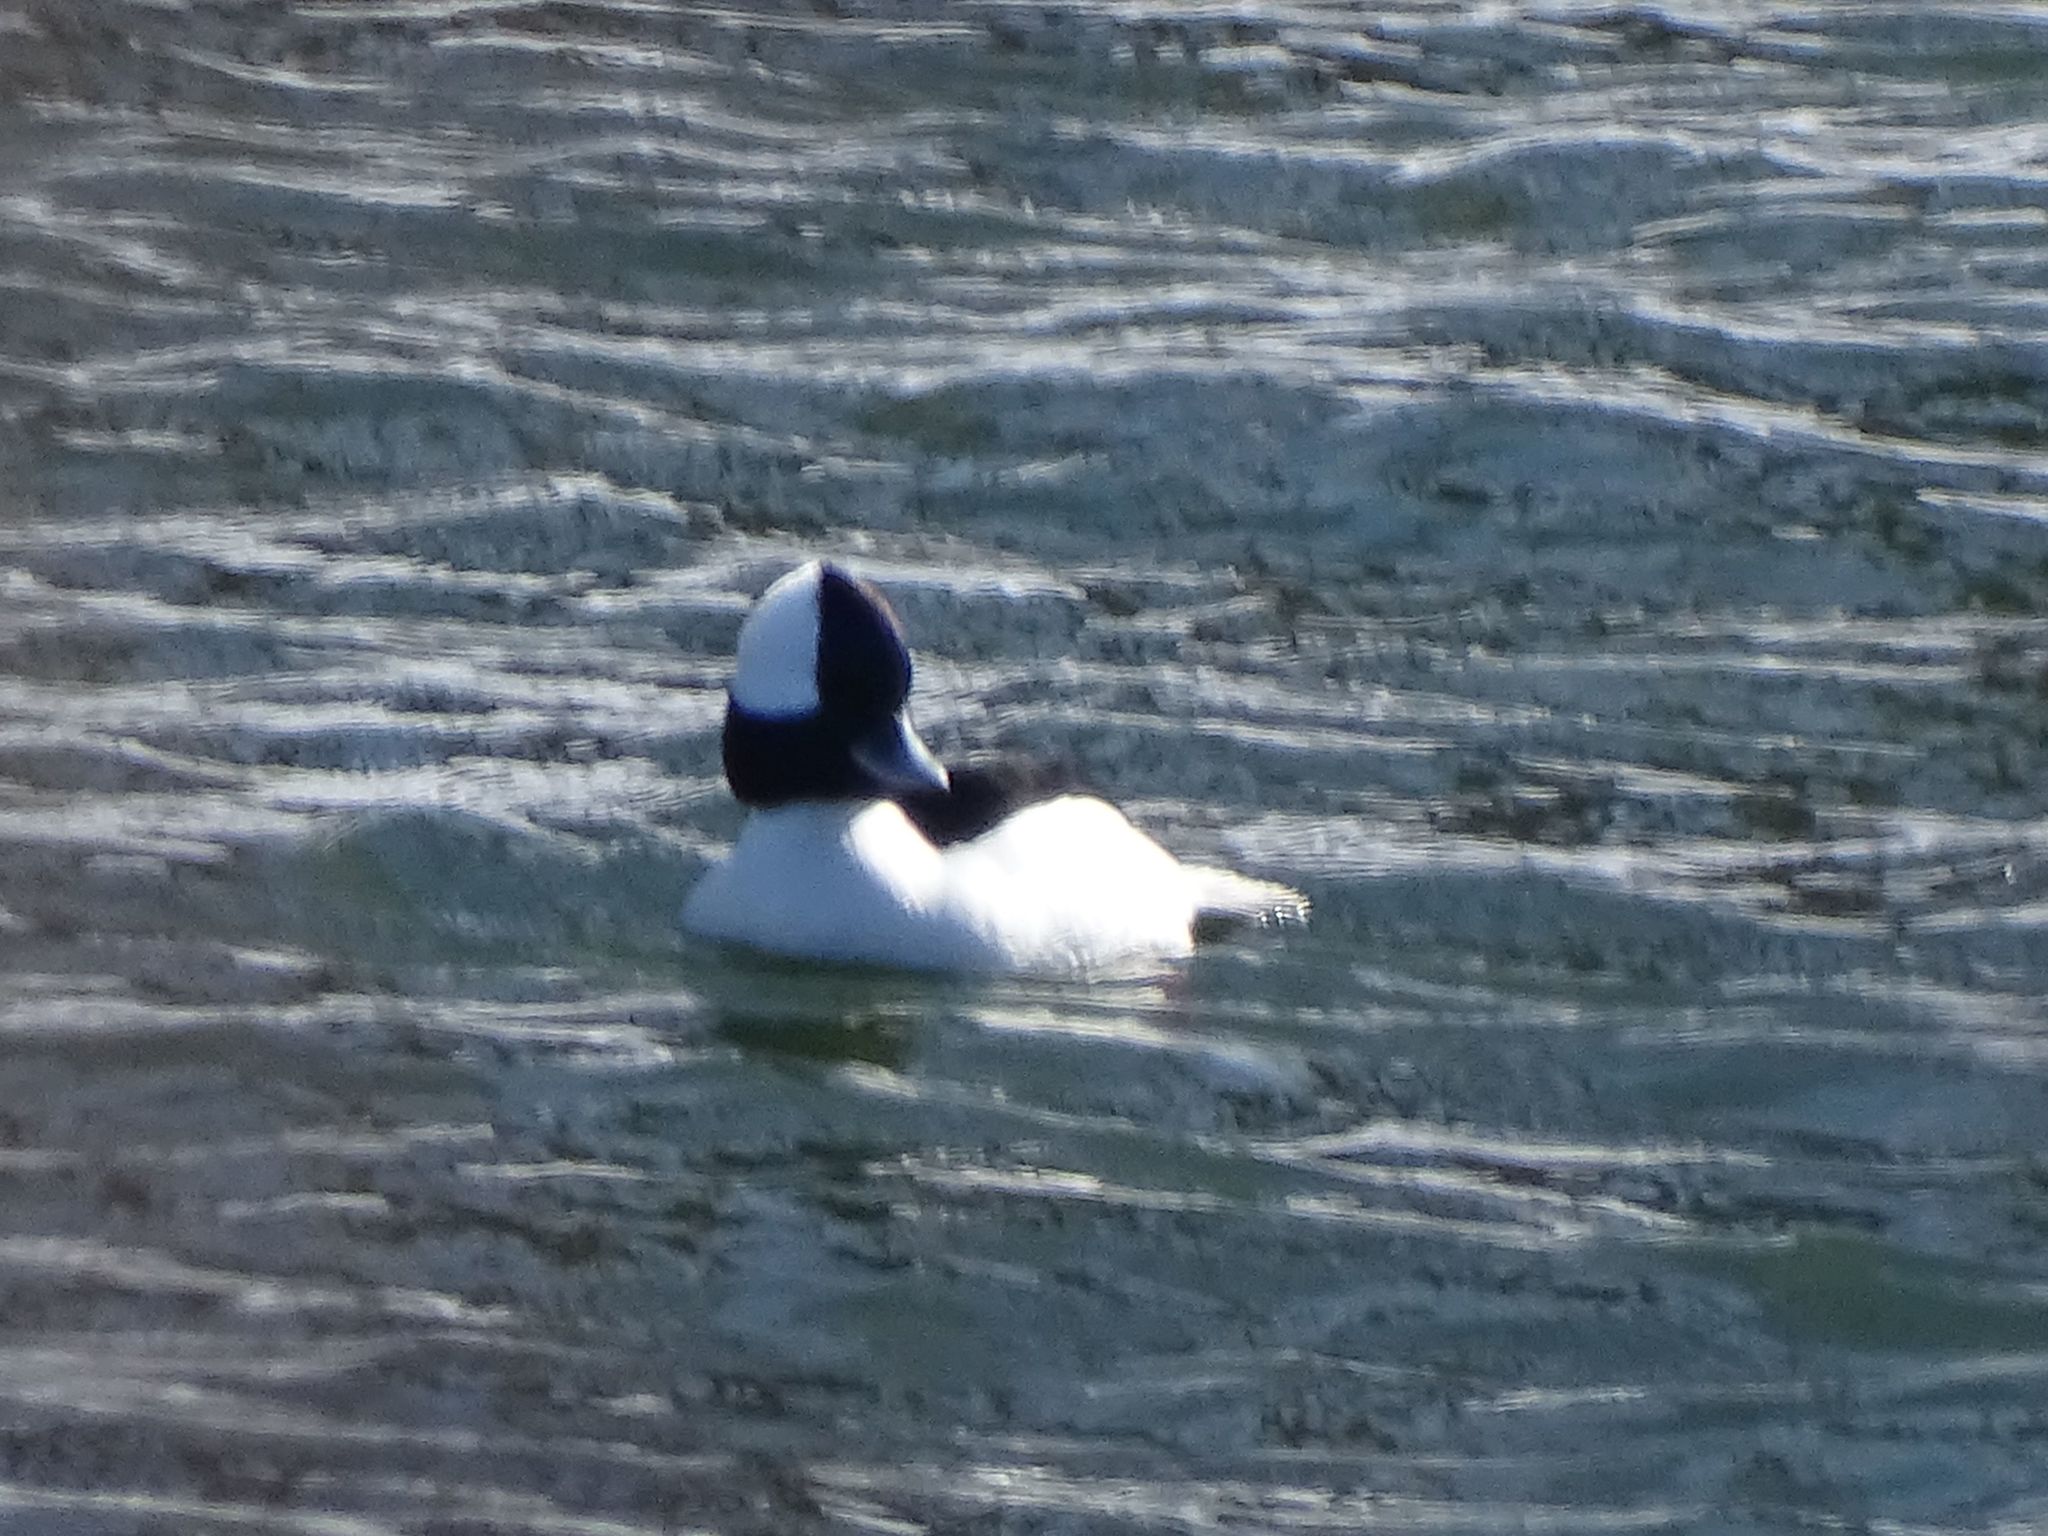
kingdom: Animalia
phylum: Chordata
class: Aves
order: Anseriformes
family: Anatidae
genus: Bucephala
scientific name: Bucephala albeola
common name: Bufflehead
